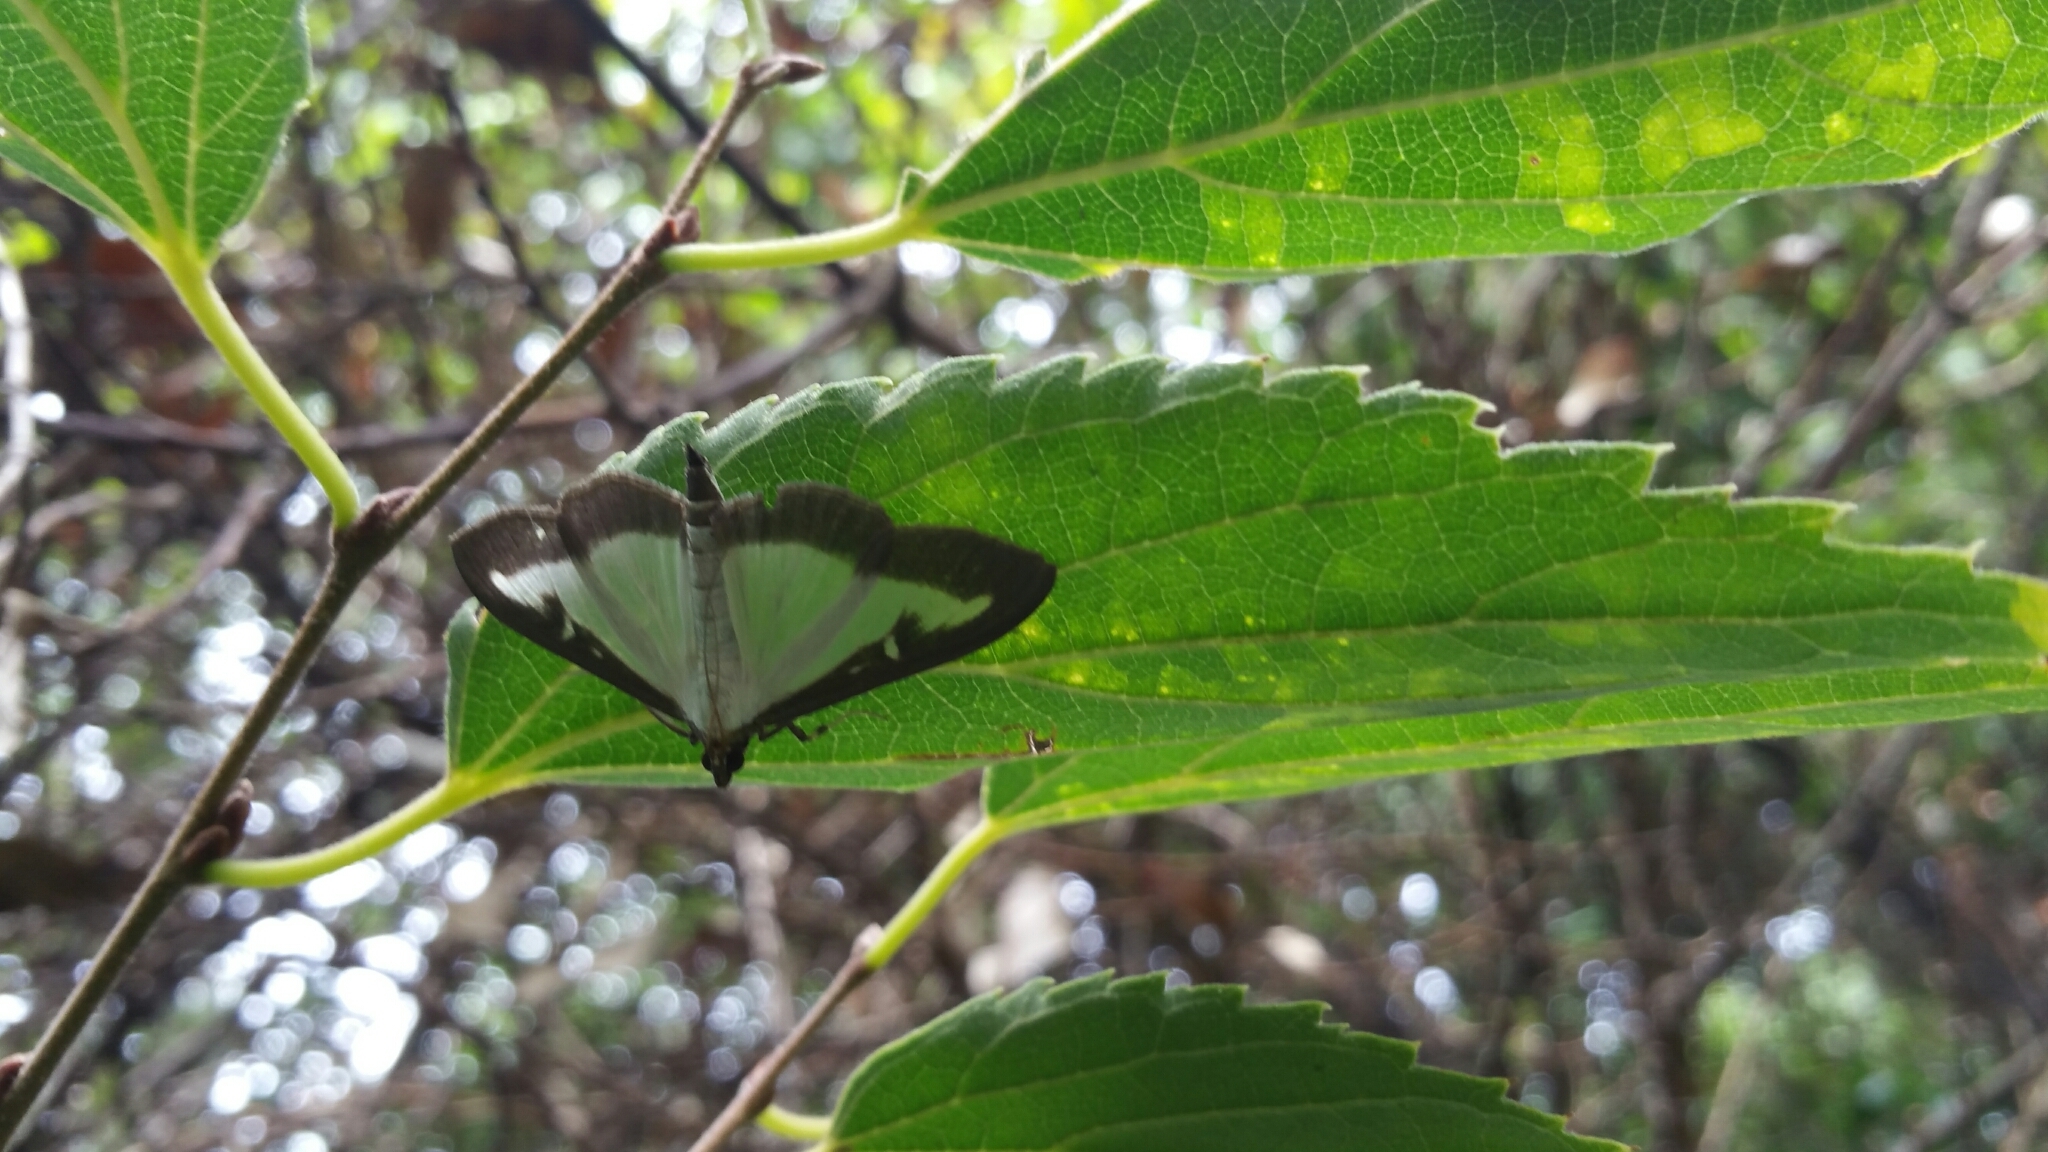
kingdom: Animalia
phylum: Arthropoda
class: Insecta
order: Lepidoptera
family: Crambidae
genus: Cydalima
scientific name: Cydalima perspectalis
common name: Box tree moth
